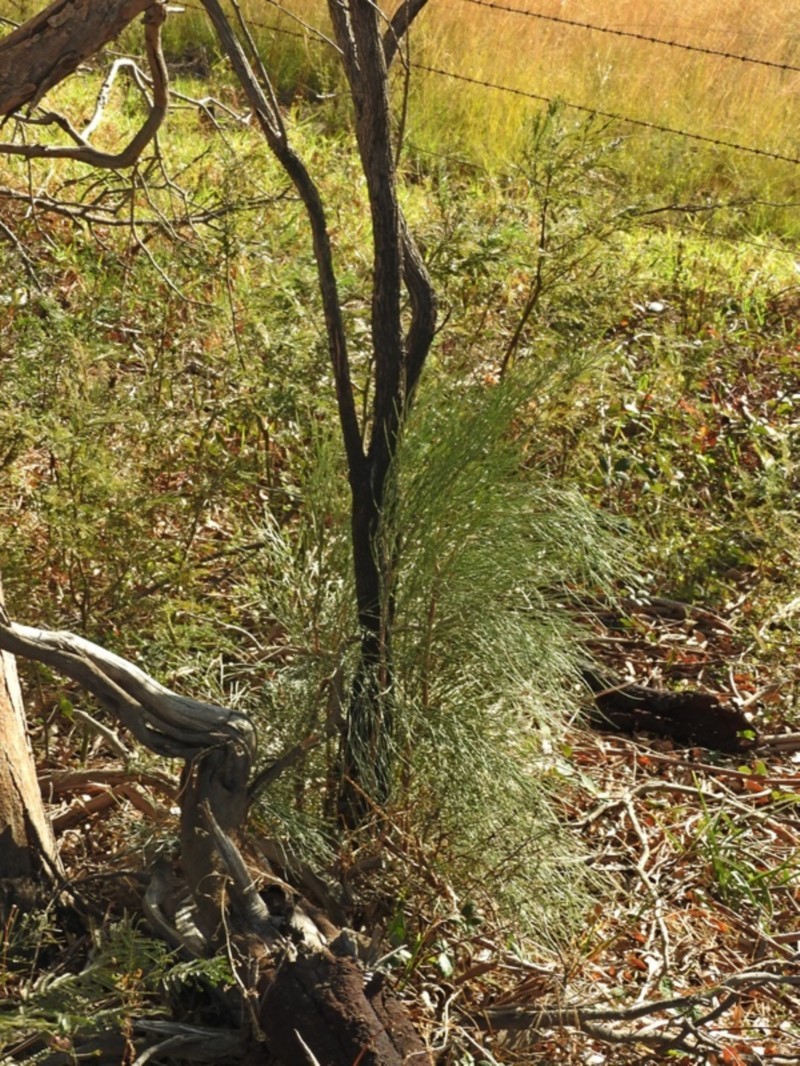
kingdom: Plantae
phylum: Tracheophyta
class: Magnoliopsida
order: Fabales
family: Fabaceae
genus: Jacksonia
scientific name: Jacksonia scoparia
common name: Dogwood
